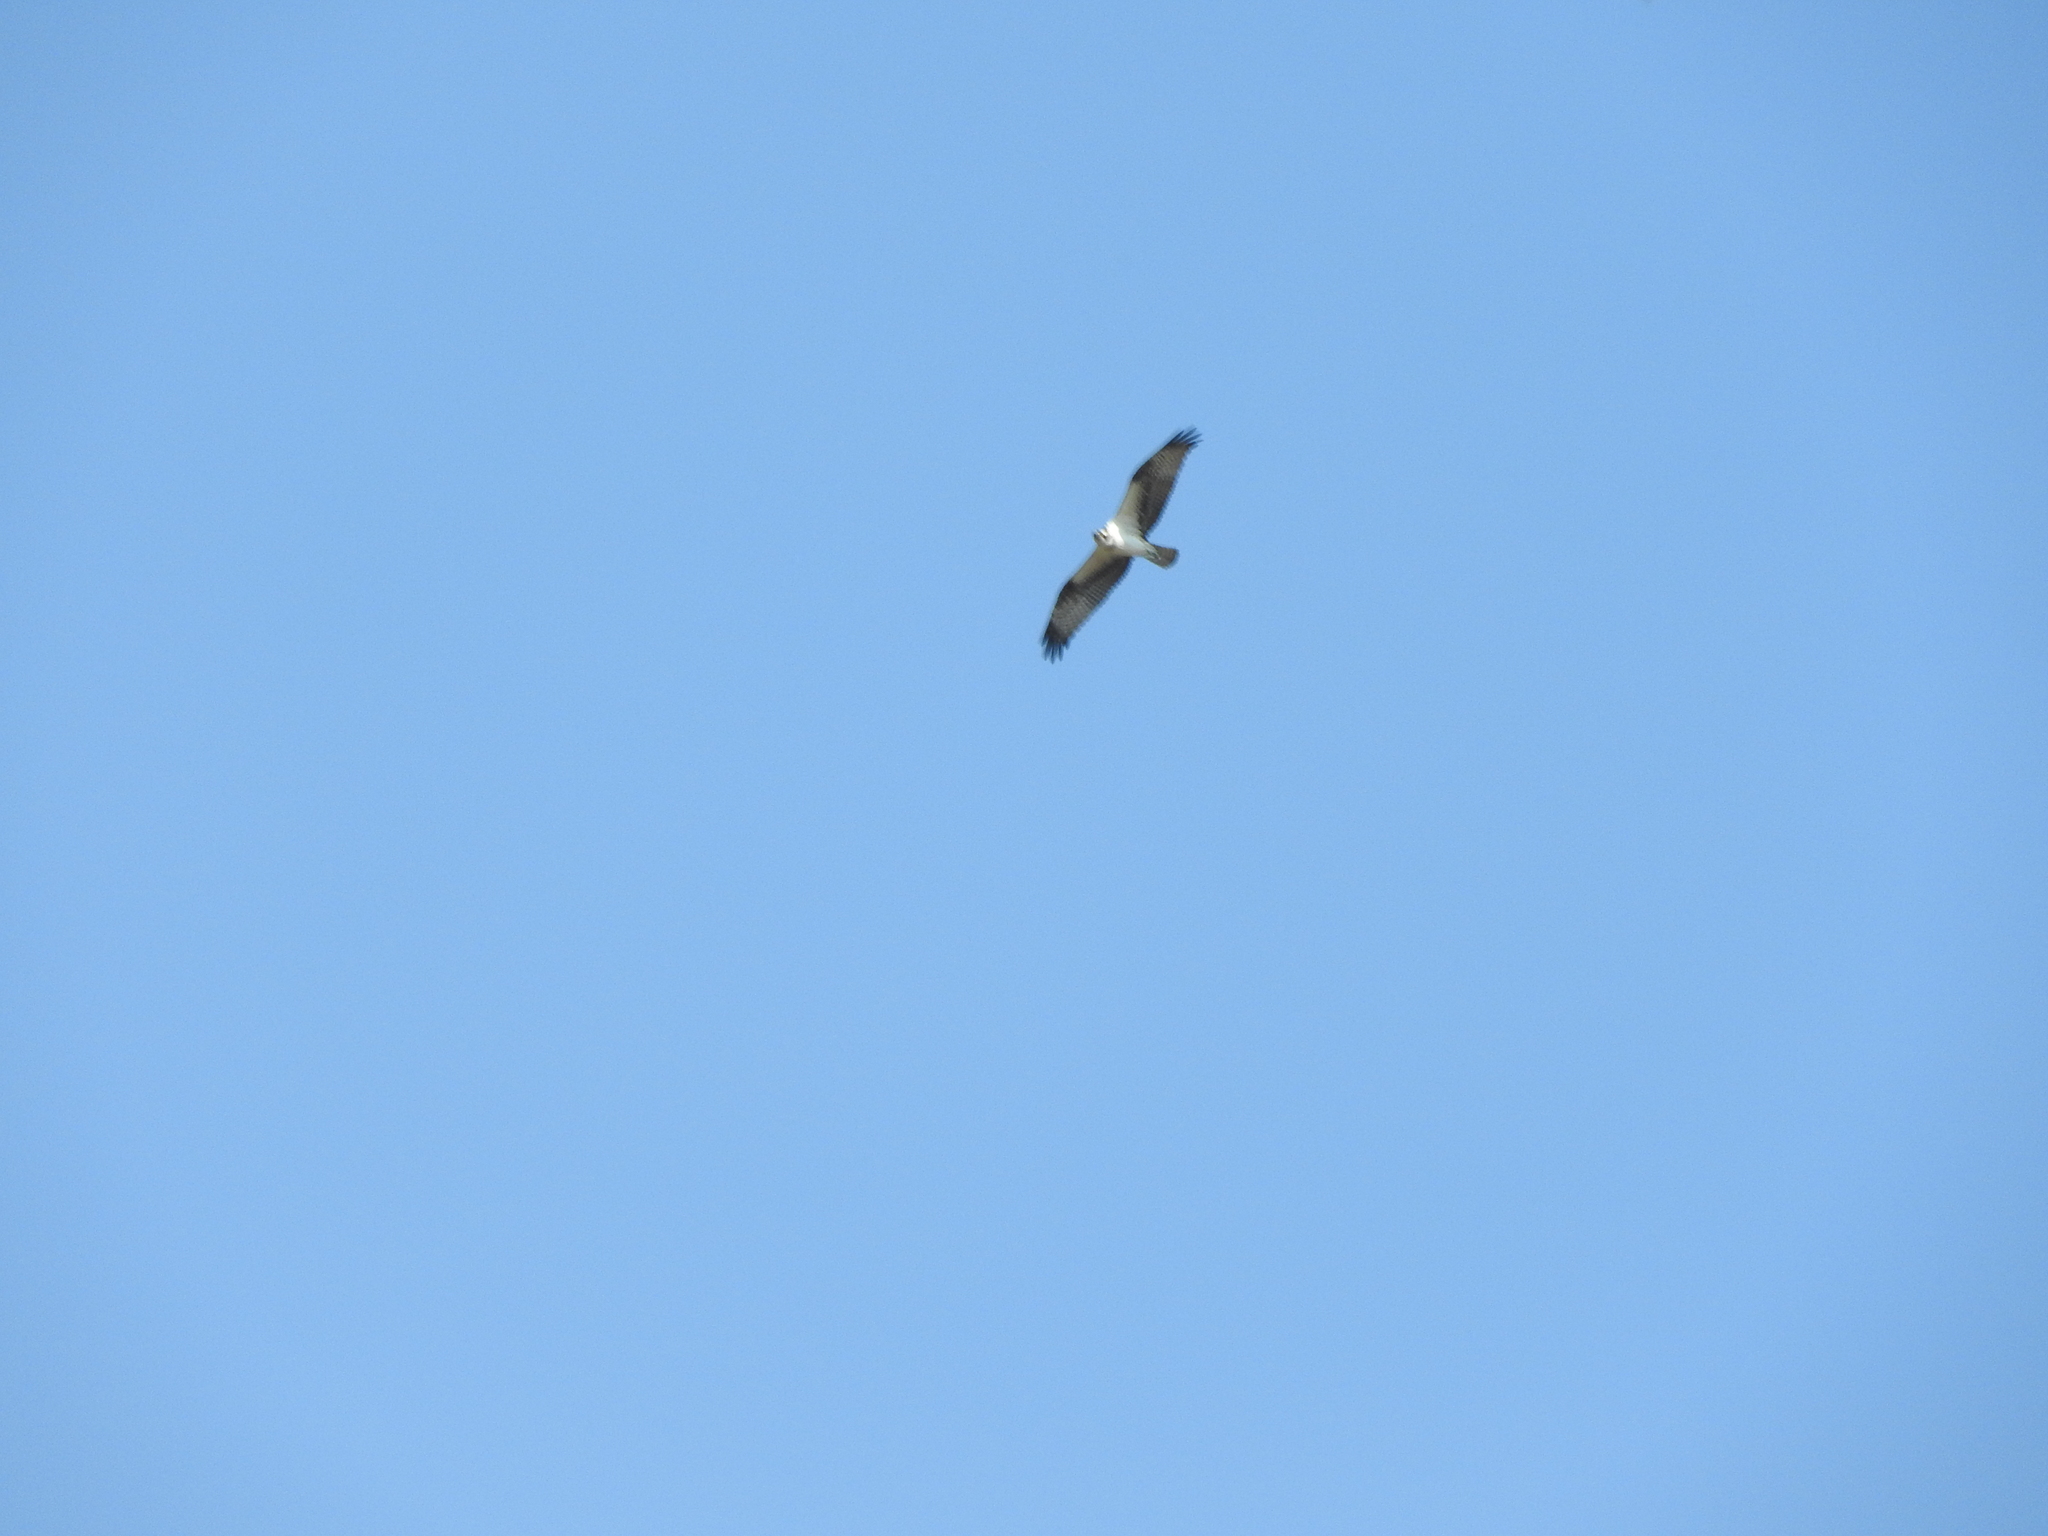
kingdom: Animalia
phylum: Chordata
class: Aves
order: Accipitriformes
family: Pandionidae
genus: Pandion
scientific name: Pandion haliaetus
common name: Osprey
